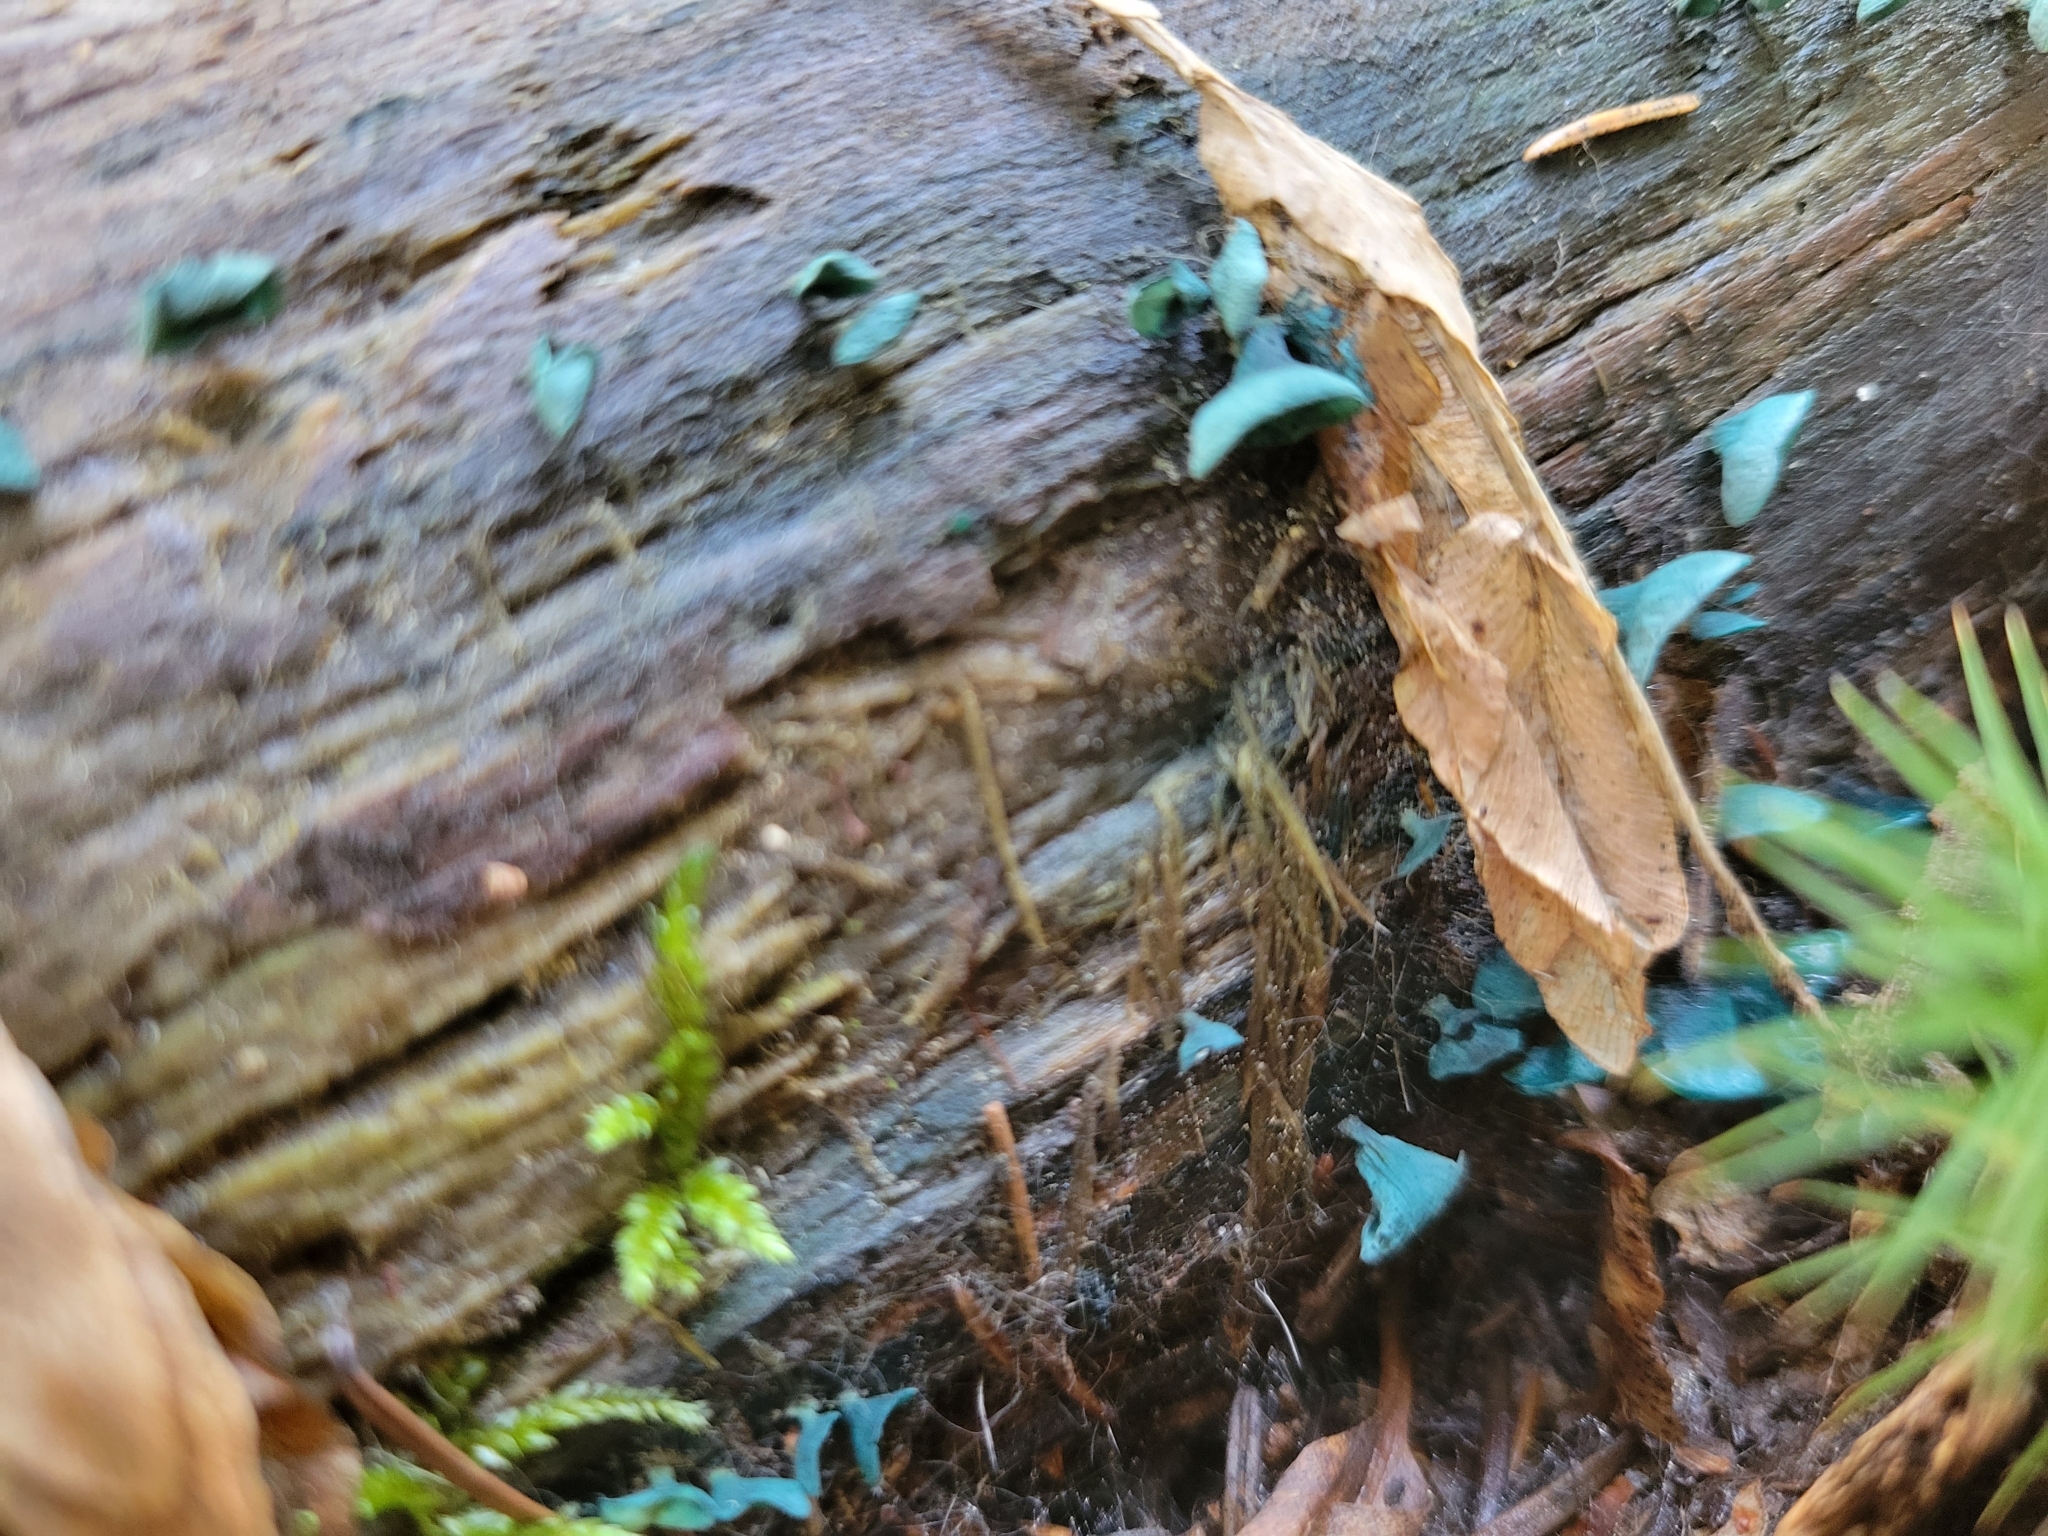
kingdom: Fungi
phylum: Ascomycota
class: Leotiomycetes
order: Helotiales
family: Chlorociboriaceae
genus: Chlorociboria
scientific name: Chlorociboria aeruginascens
